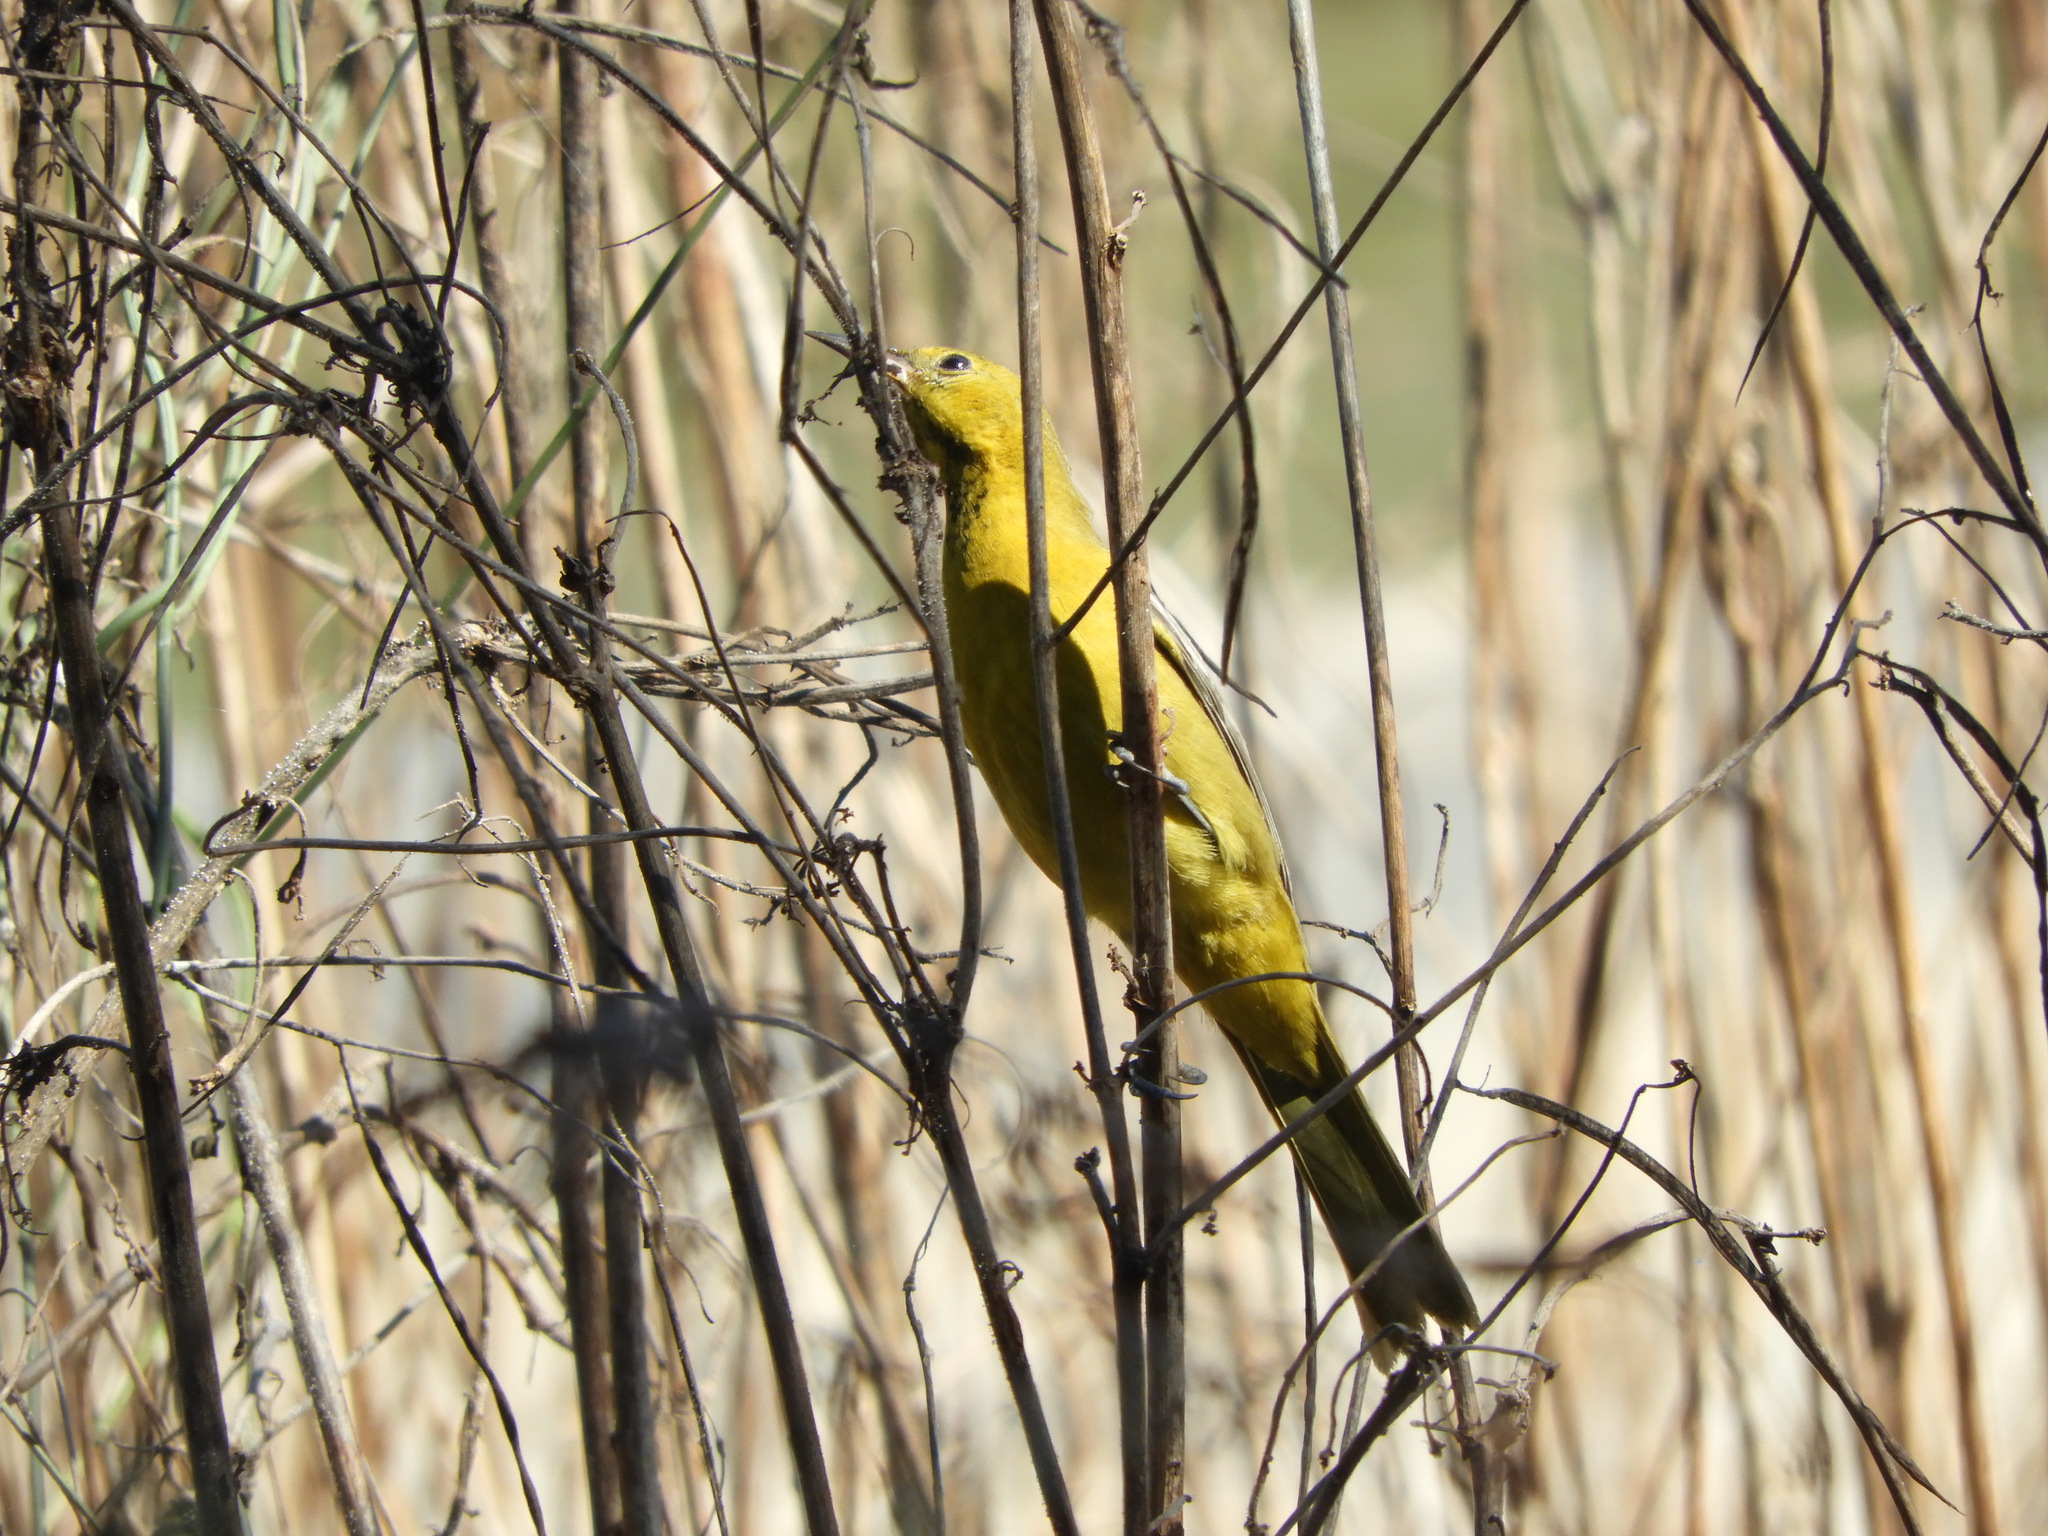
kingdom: Animalia
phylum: Chordata
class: Aves
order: Passeriformes
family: Icteridae
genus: Icterus
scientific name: Icterus cucullatus
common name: Hooded oriole
